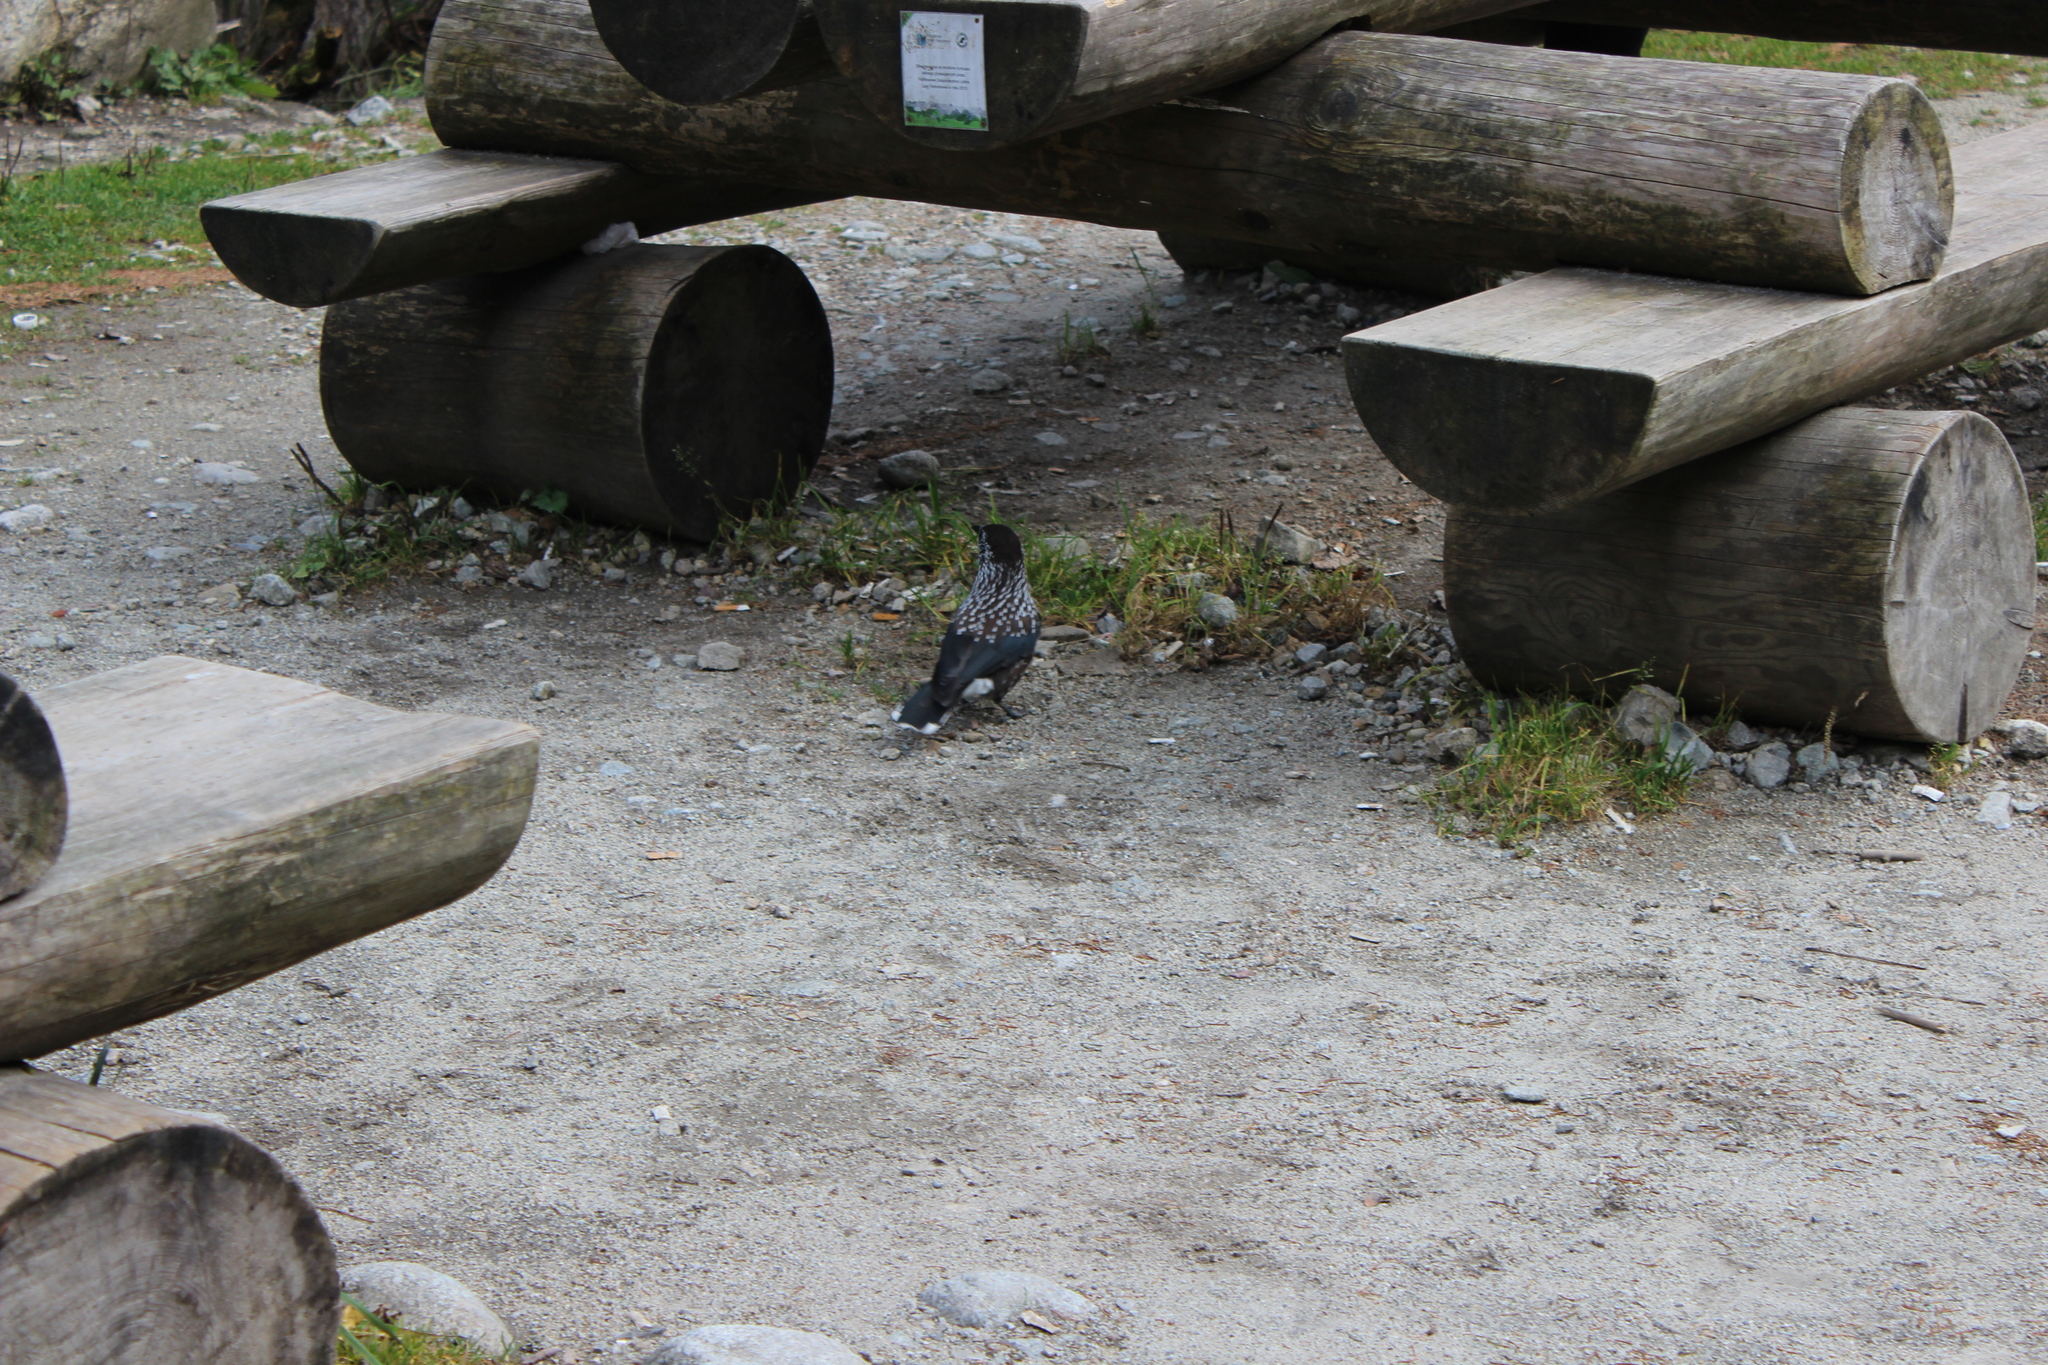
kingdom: Animalia
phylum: Chordata
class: Aves
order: Passeriformes
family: Corvidae
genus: Nucifraga
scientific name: Nucifraga caryocatactes
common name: Spotted nutcracker
